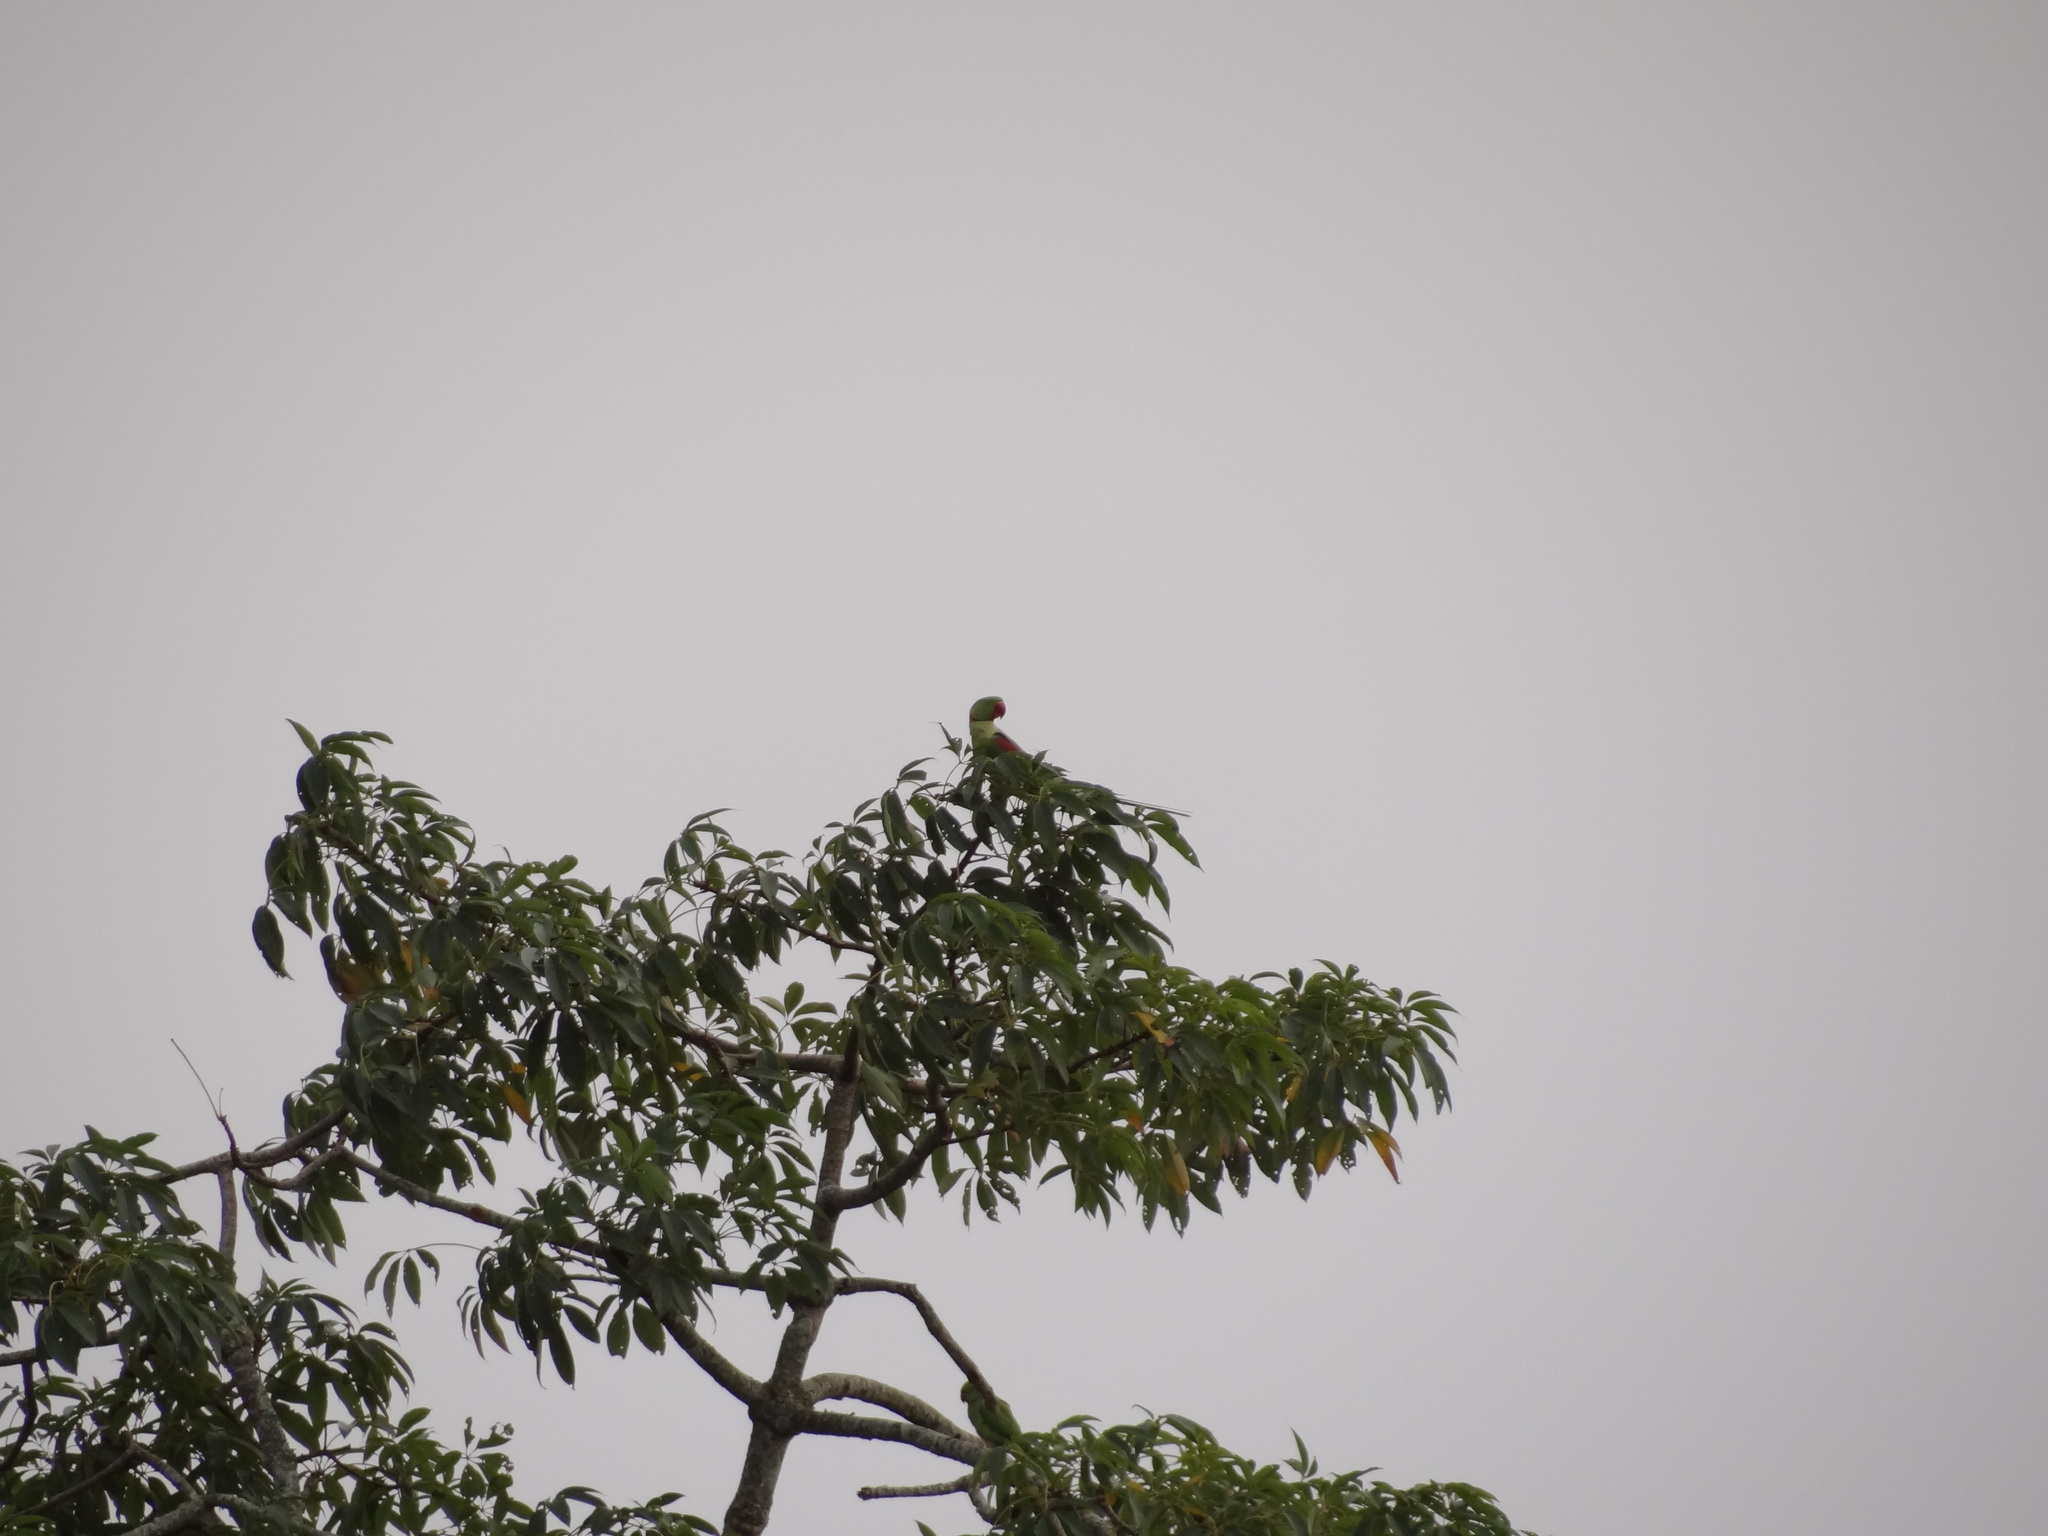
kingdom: Animalia
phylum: Chordata
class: Aves
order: Psittaciformes
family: Psittacidae
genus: Psittacula
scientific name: Psittacula eupatria
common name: Alexandrine parakeet
